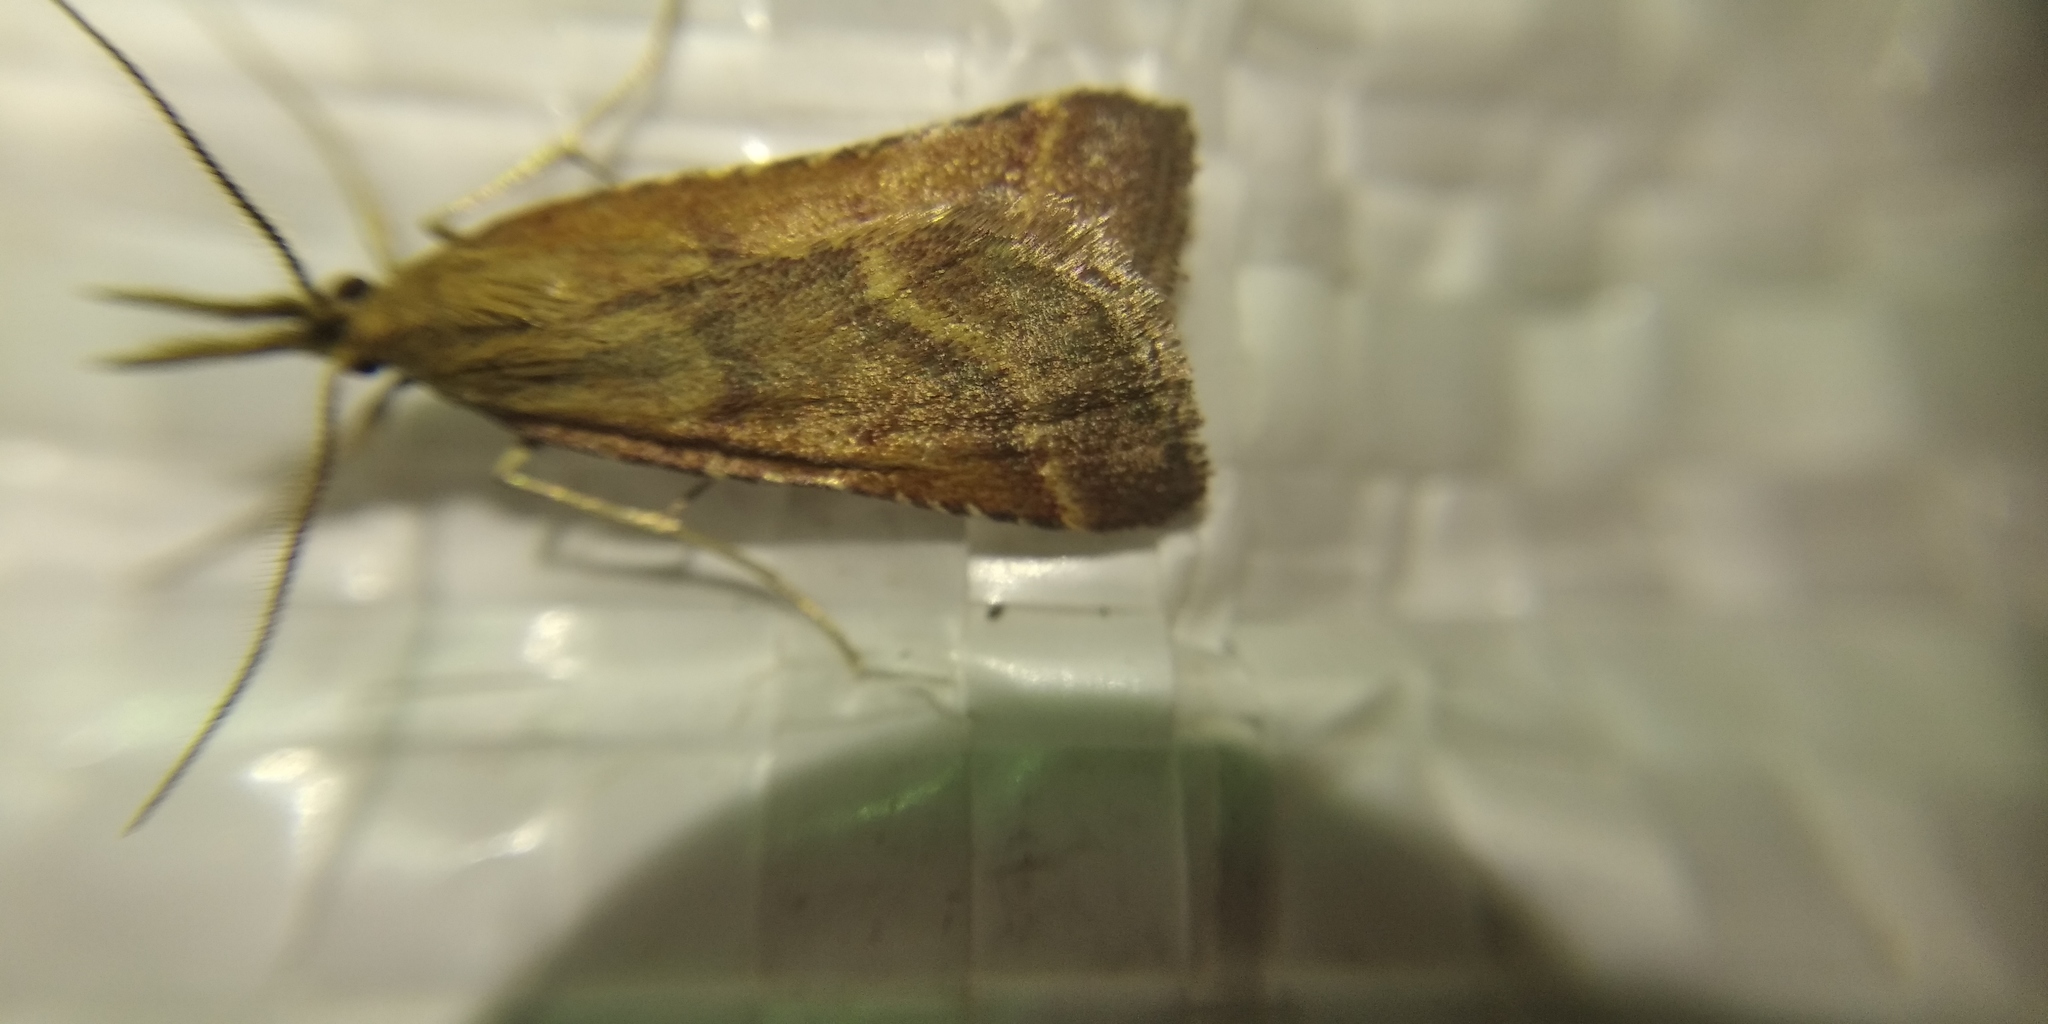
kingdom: Animalia
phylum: Arthropoda
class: Insecta
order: Lepidoptera
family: Pyralidae
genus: Synaphe
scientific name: Synaphe punctalis
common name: Long-legged tabby
